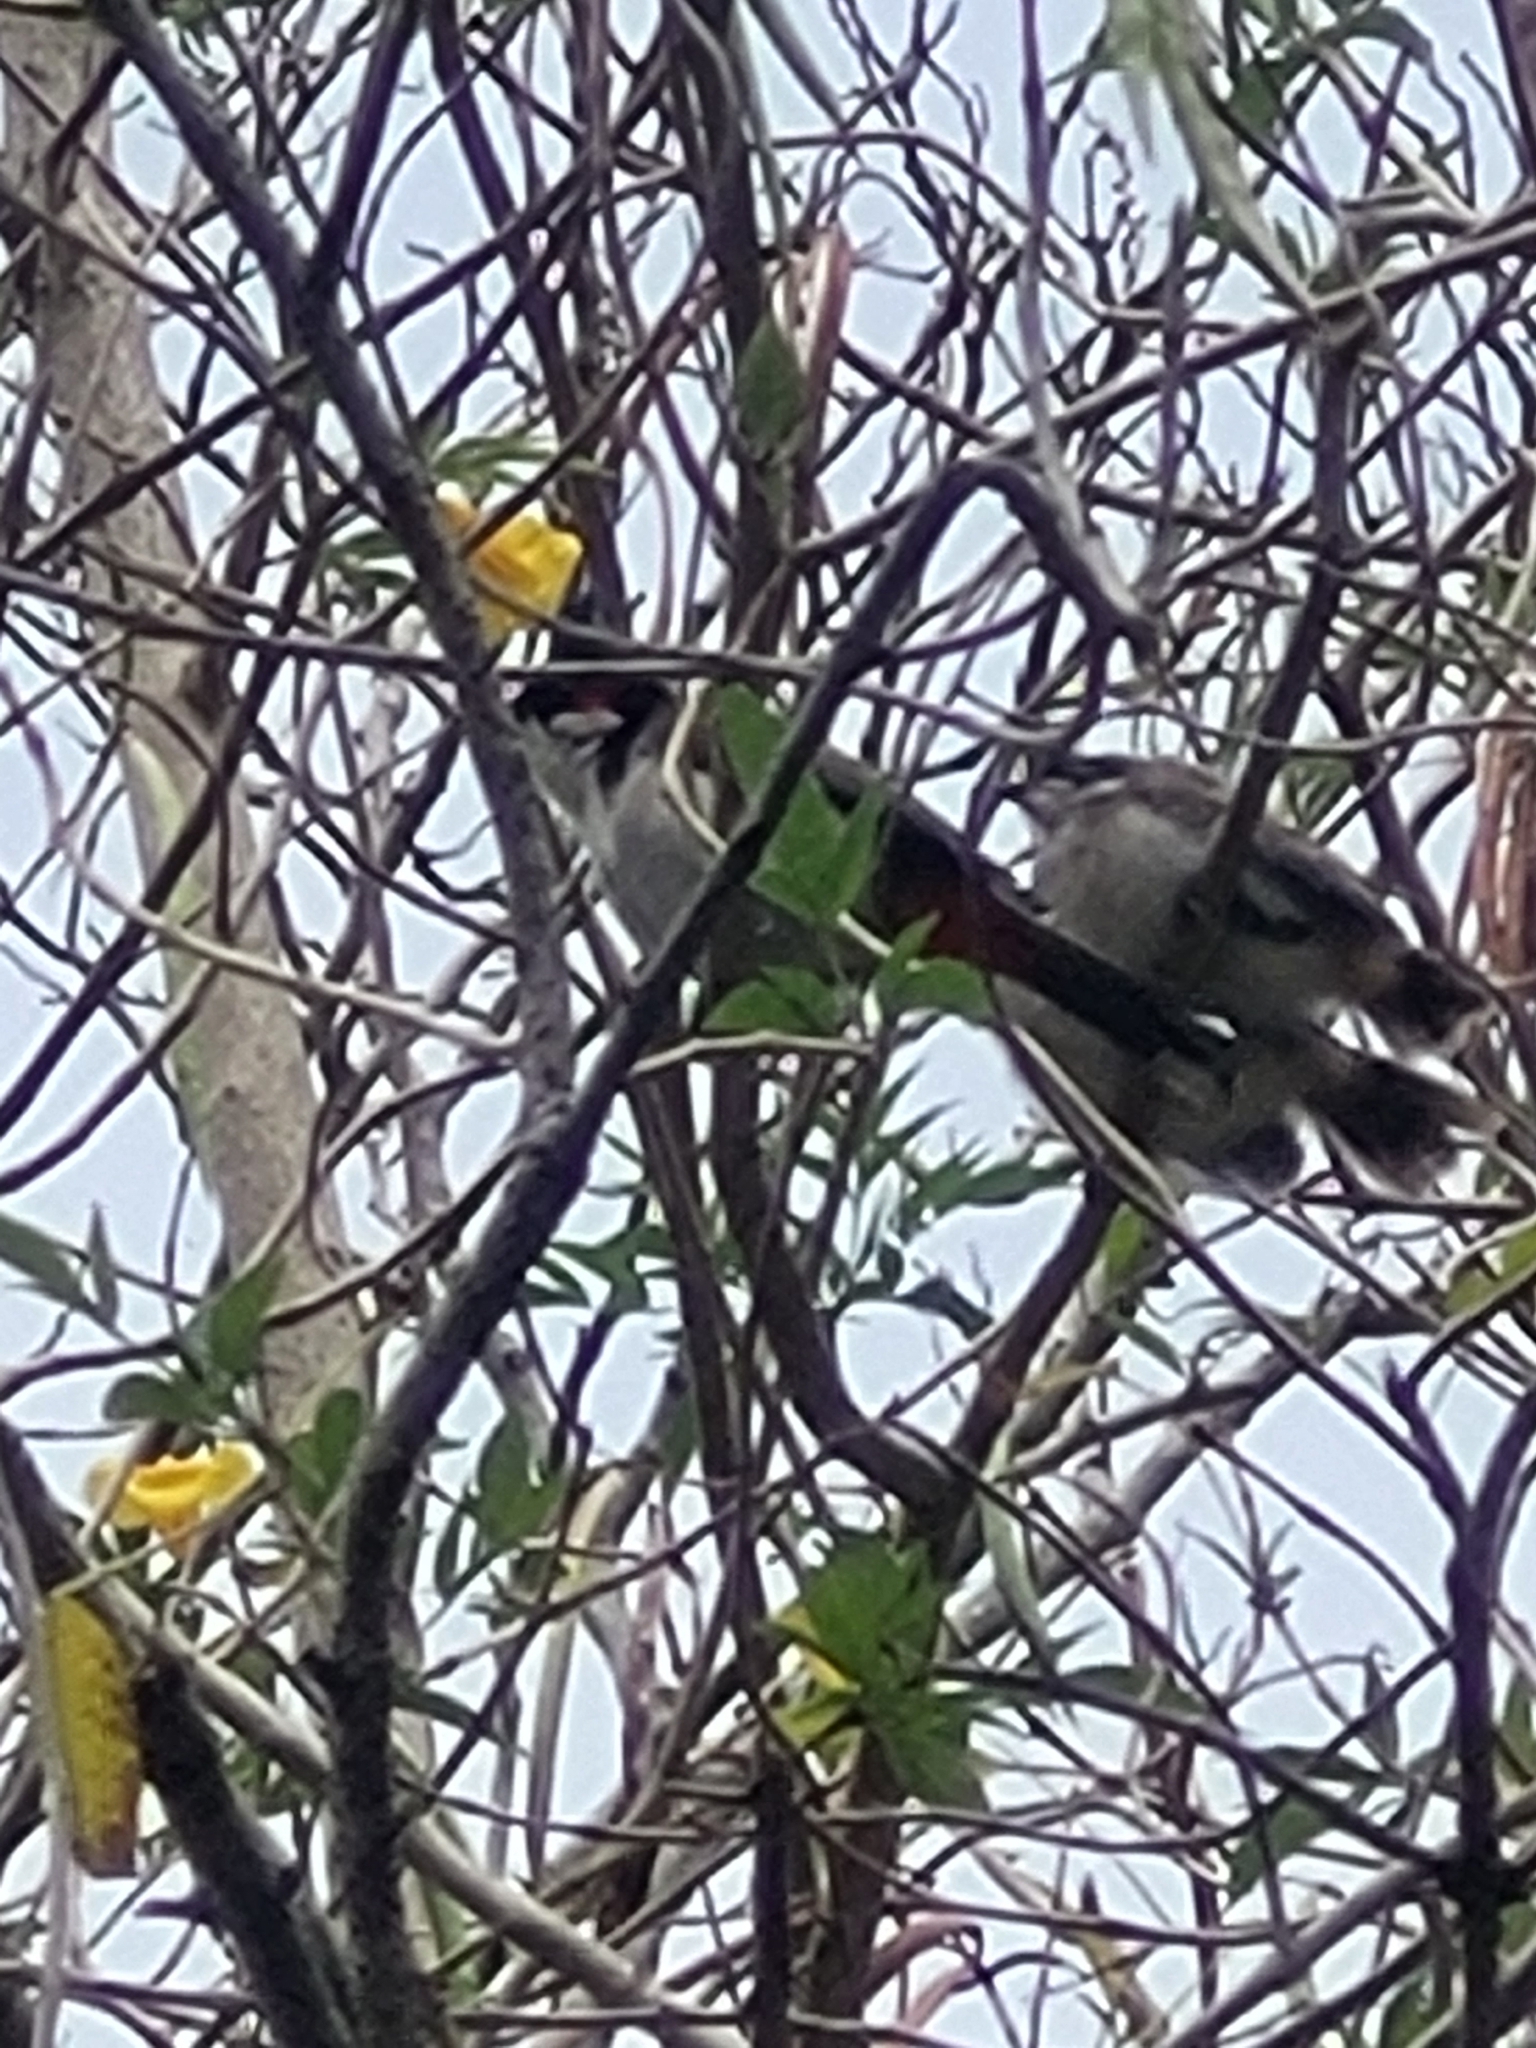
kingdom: Animalia
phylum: Chordata
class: Aves
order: Passeriformes
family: Pycnonotidae
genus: Pycnonotus
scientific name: Pycnonotus jocosus
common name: Red-whiskered bulbul
